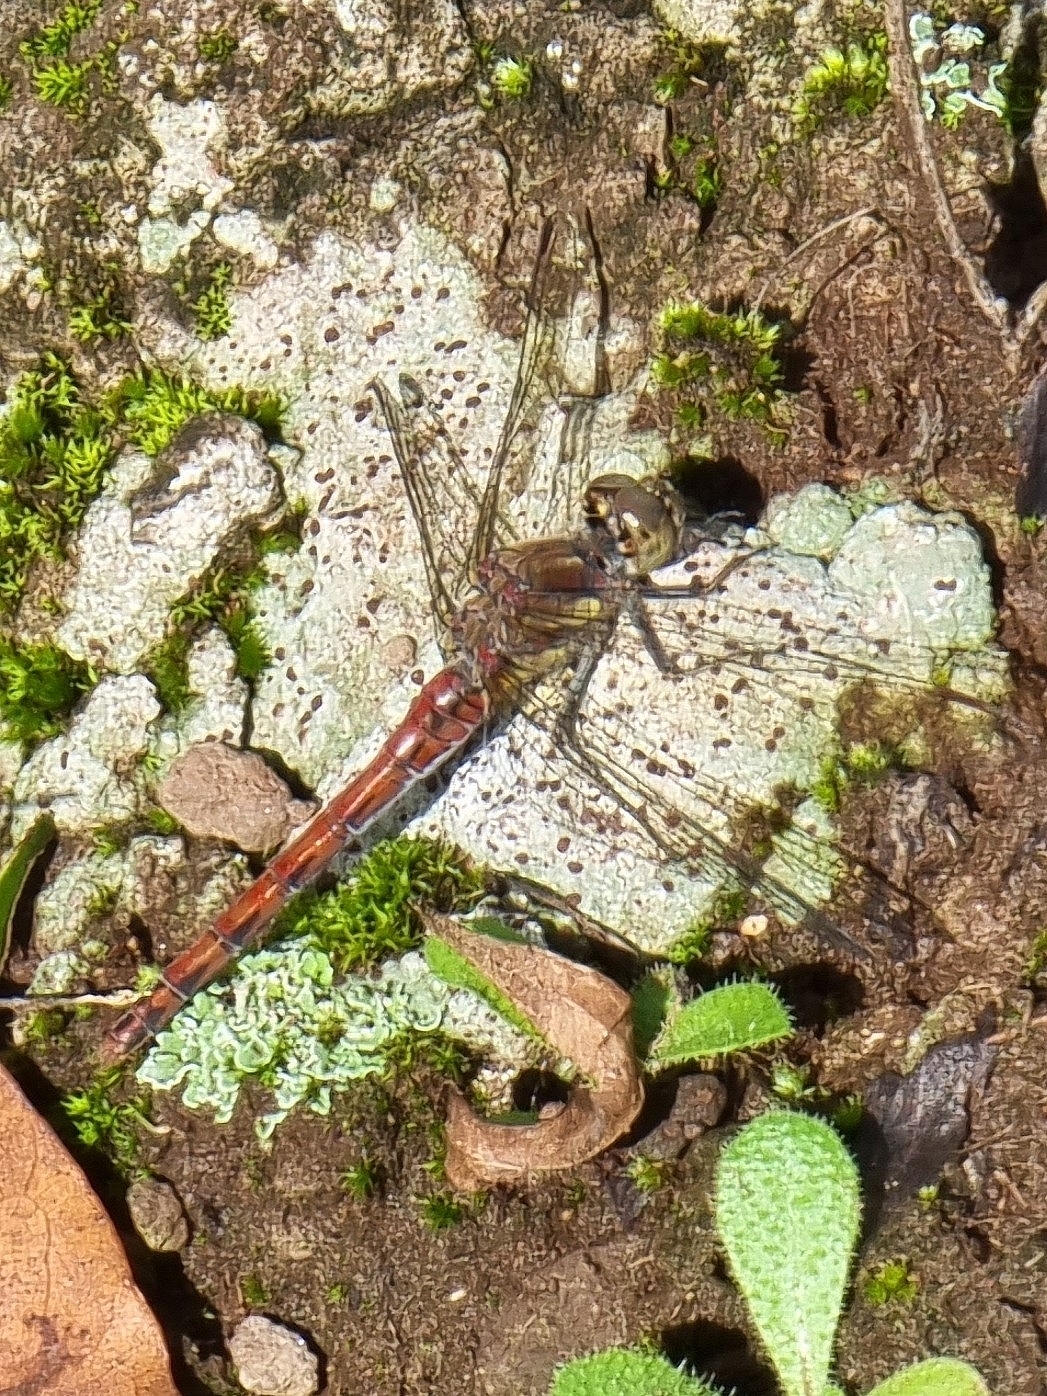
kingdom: Animalia
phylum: Arthropoda
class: Insecta
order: Odonata
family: Libellulidae
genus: Sympetrum
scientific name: Sympetrum nigrifemur
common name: Island darter
